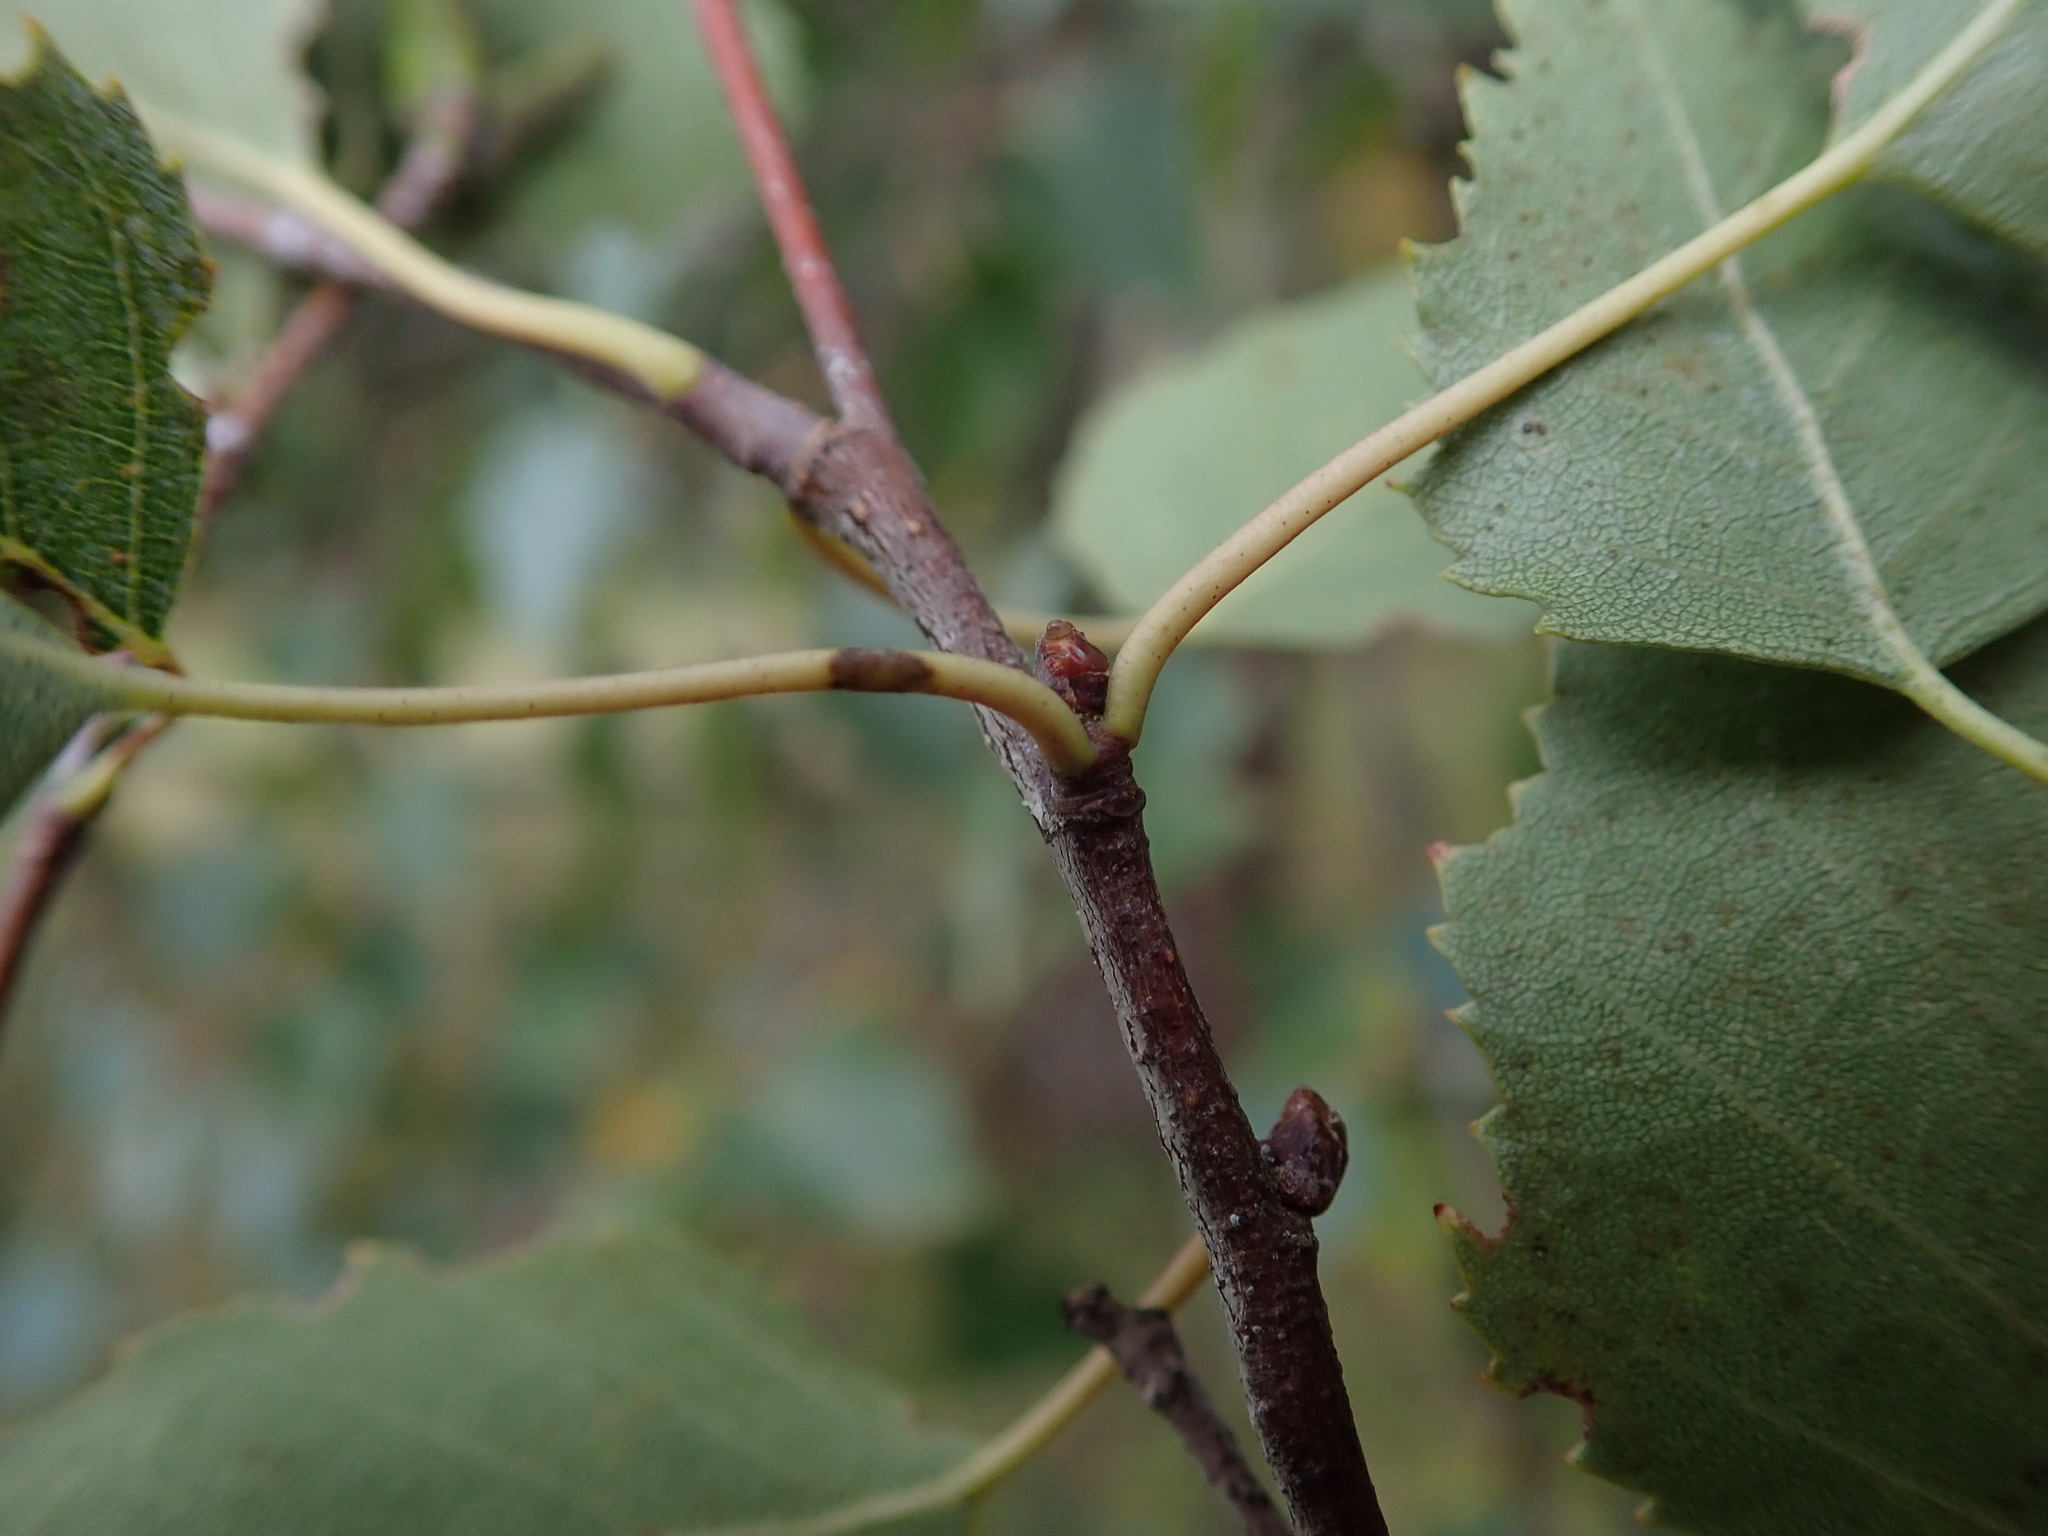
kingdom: Plantae
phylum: Tracheophyta
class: Magnoliopsida
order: Fagales
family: Betulaceae
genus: Betula
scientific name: Betula pendula
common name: Silver birch
